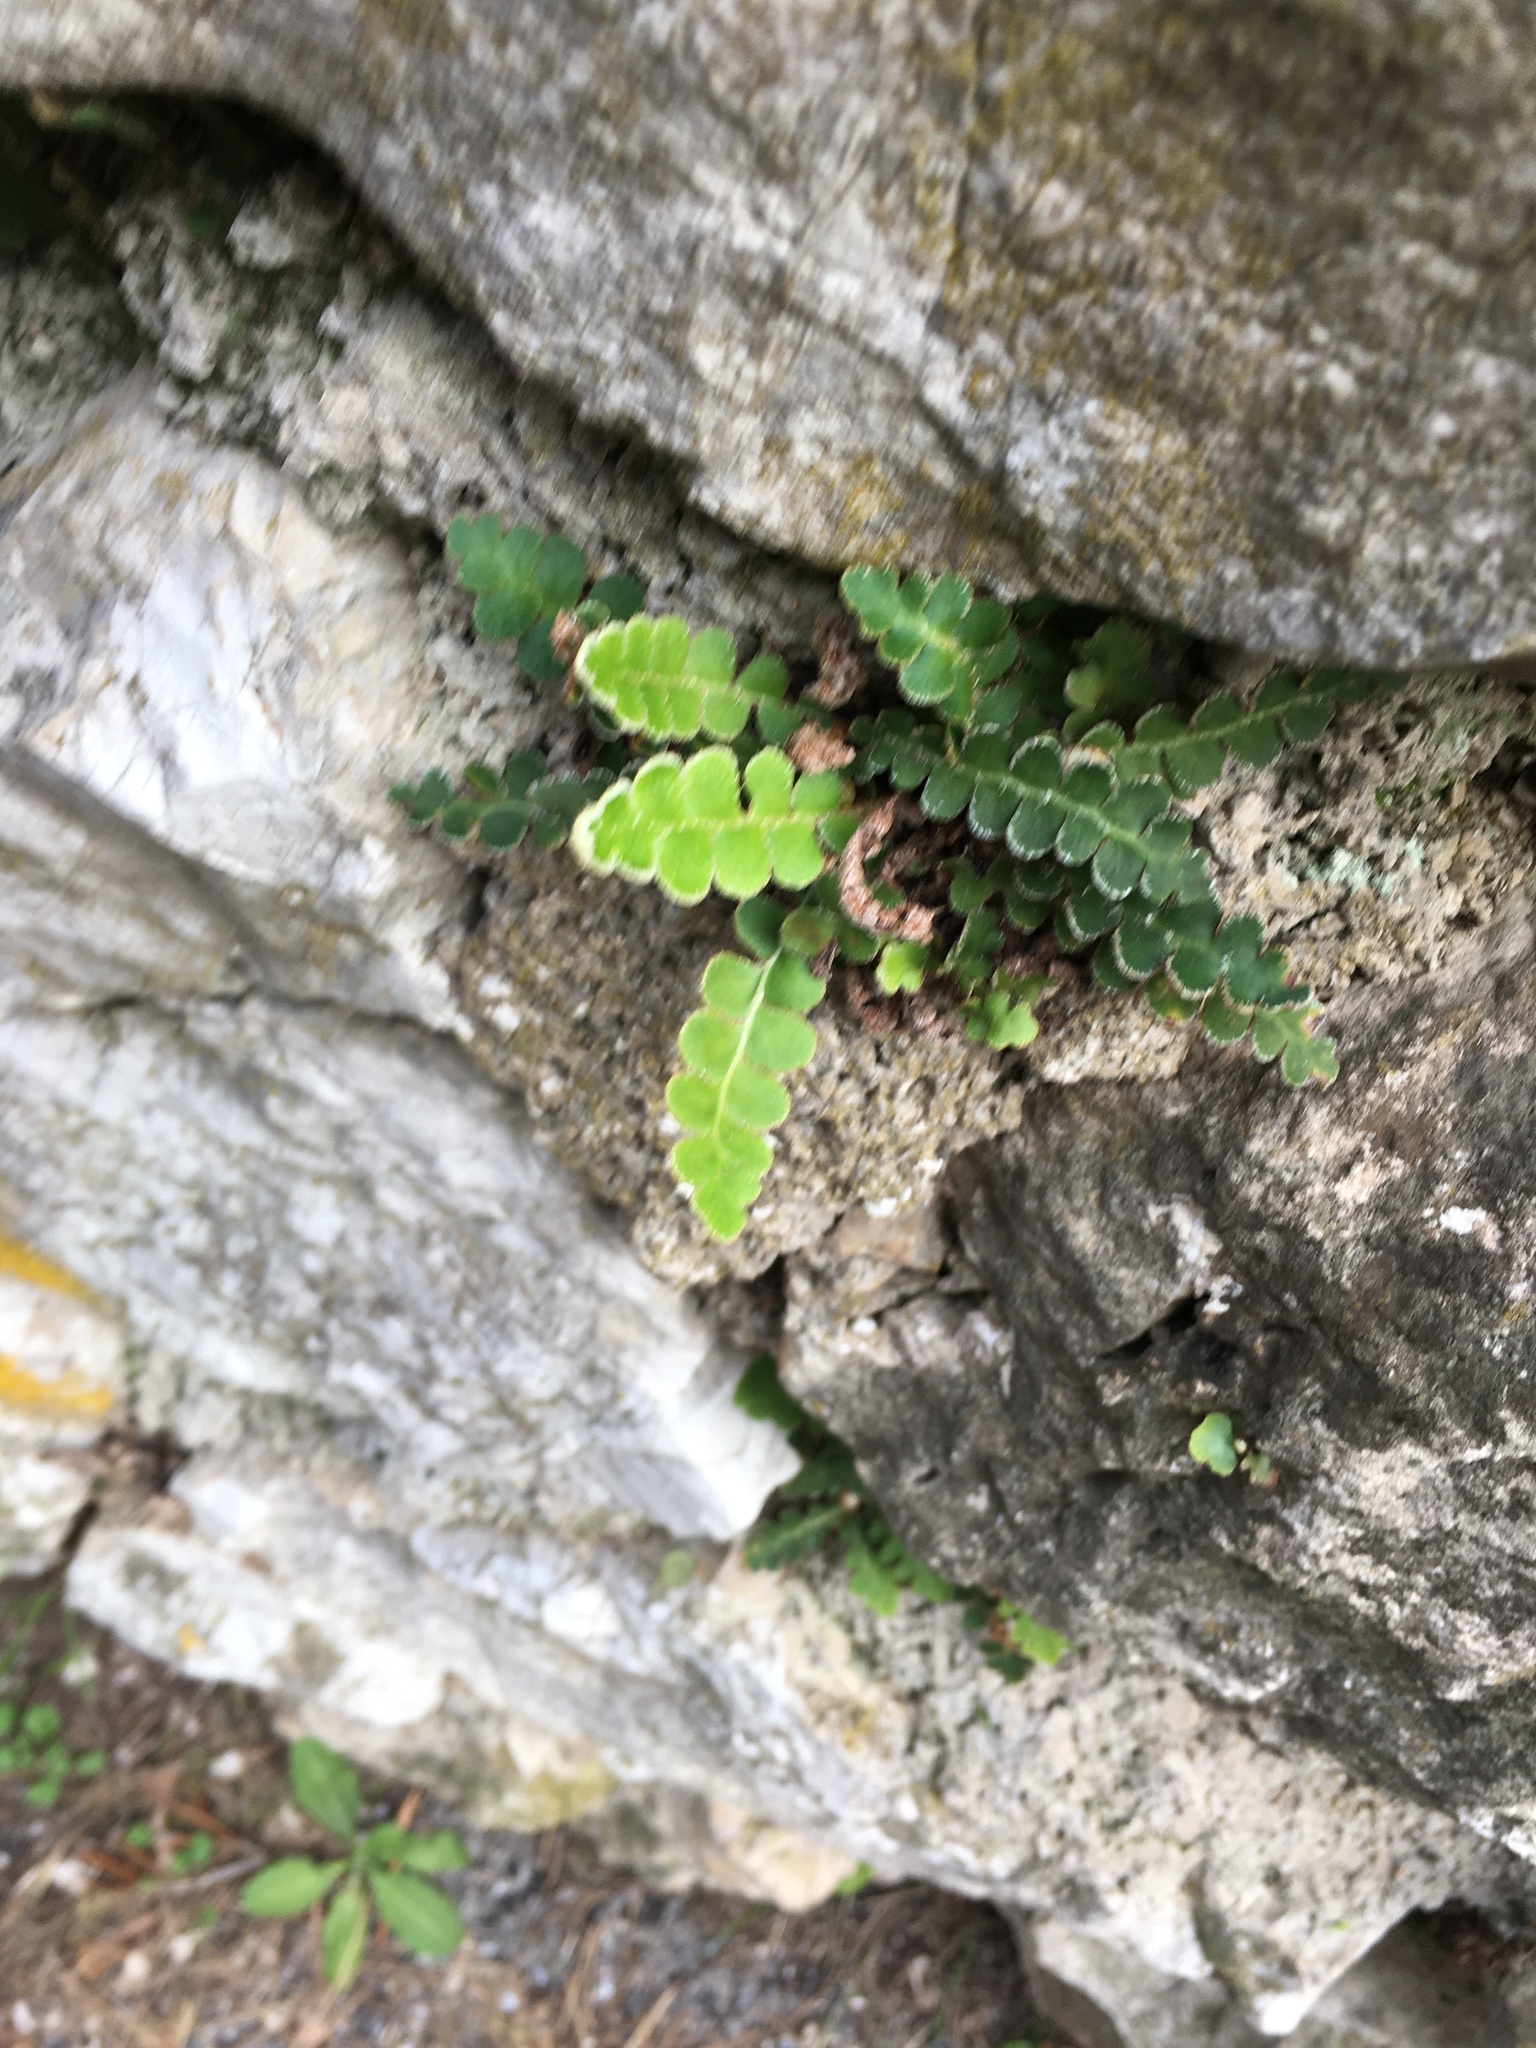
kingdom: Plantae
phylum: Tracheophyta
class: Polypodiopsida
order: Polypodiales
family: Aspleniaceae
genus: Asplenium
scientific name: Asplenium ceterach
